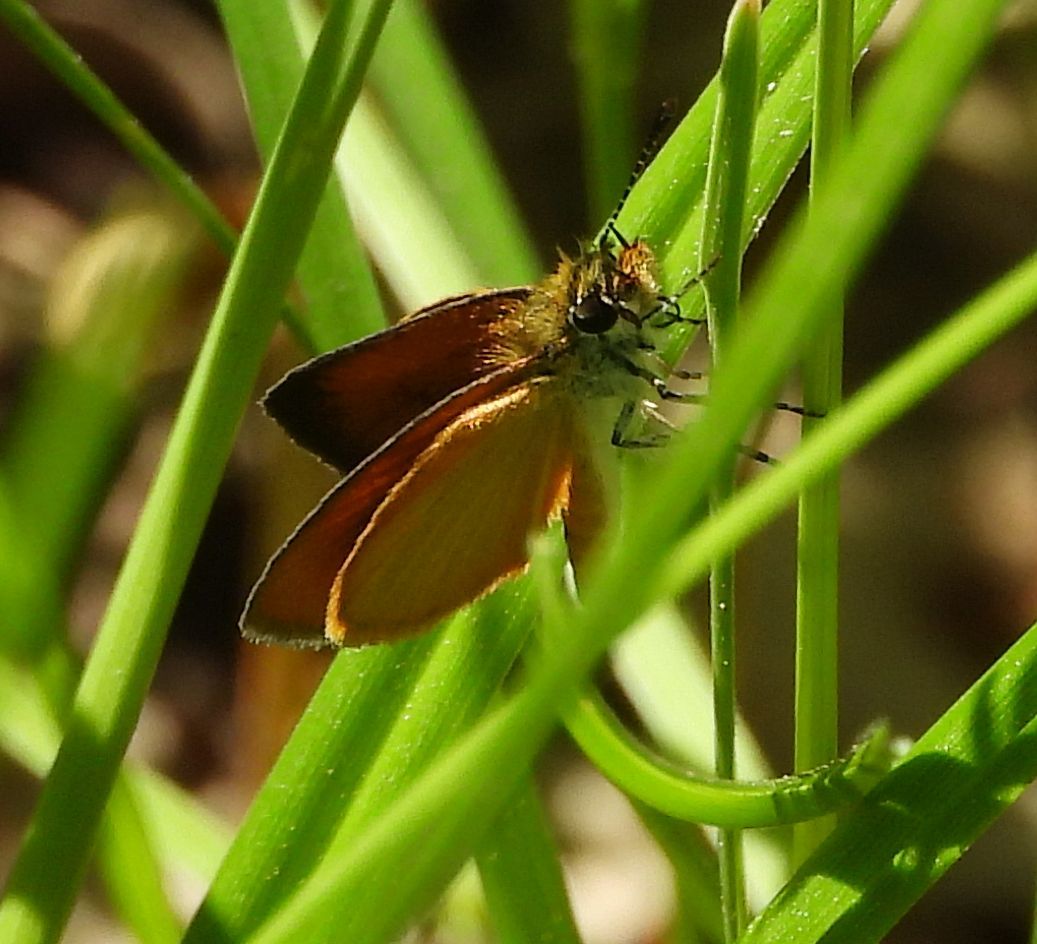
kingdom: Animalia
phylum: Arthropoda
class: Insecta
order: Lepidoptera
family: Hesperiidae
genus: Ancyloxypha
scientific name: Ancyloxypha numitor
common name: Least skipper
